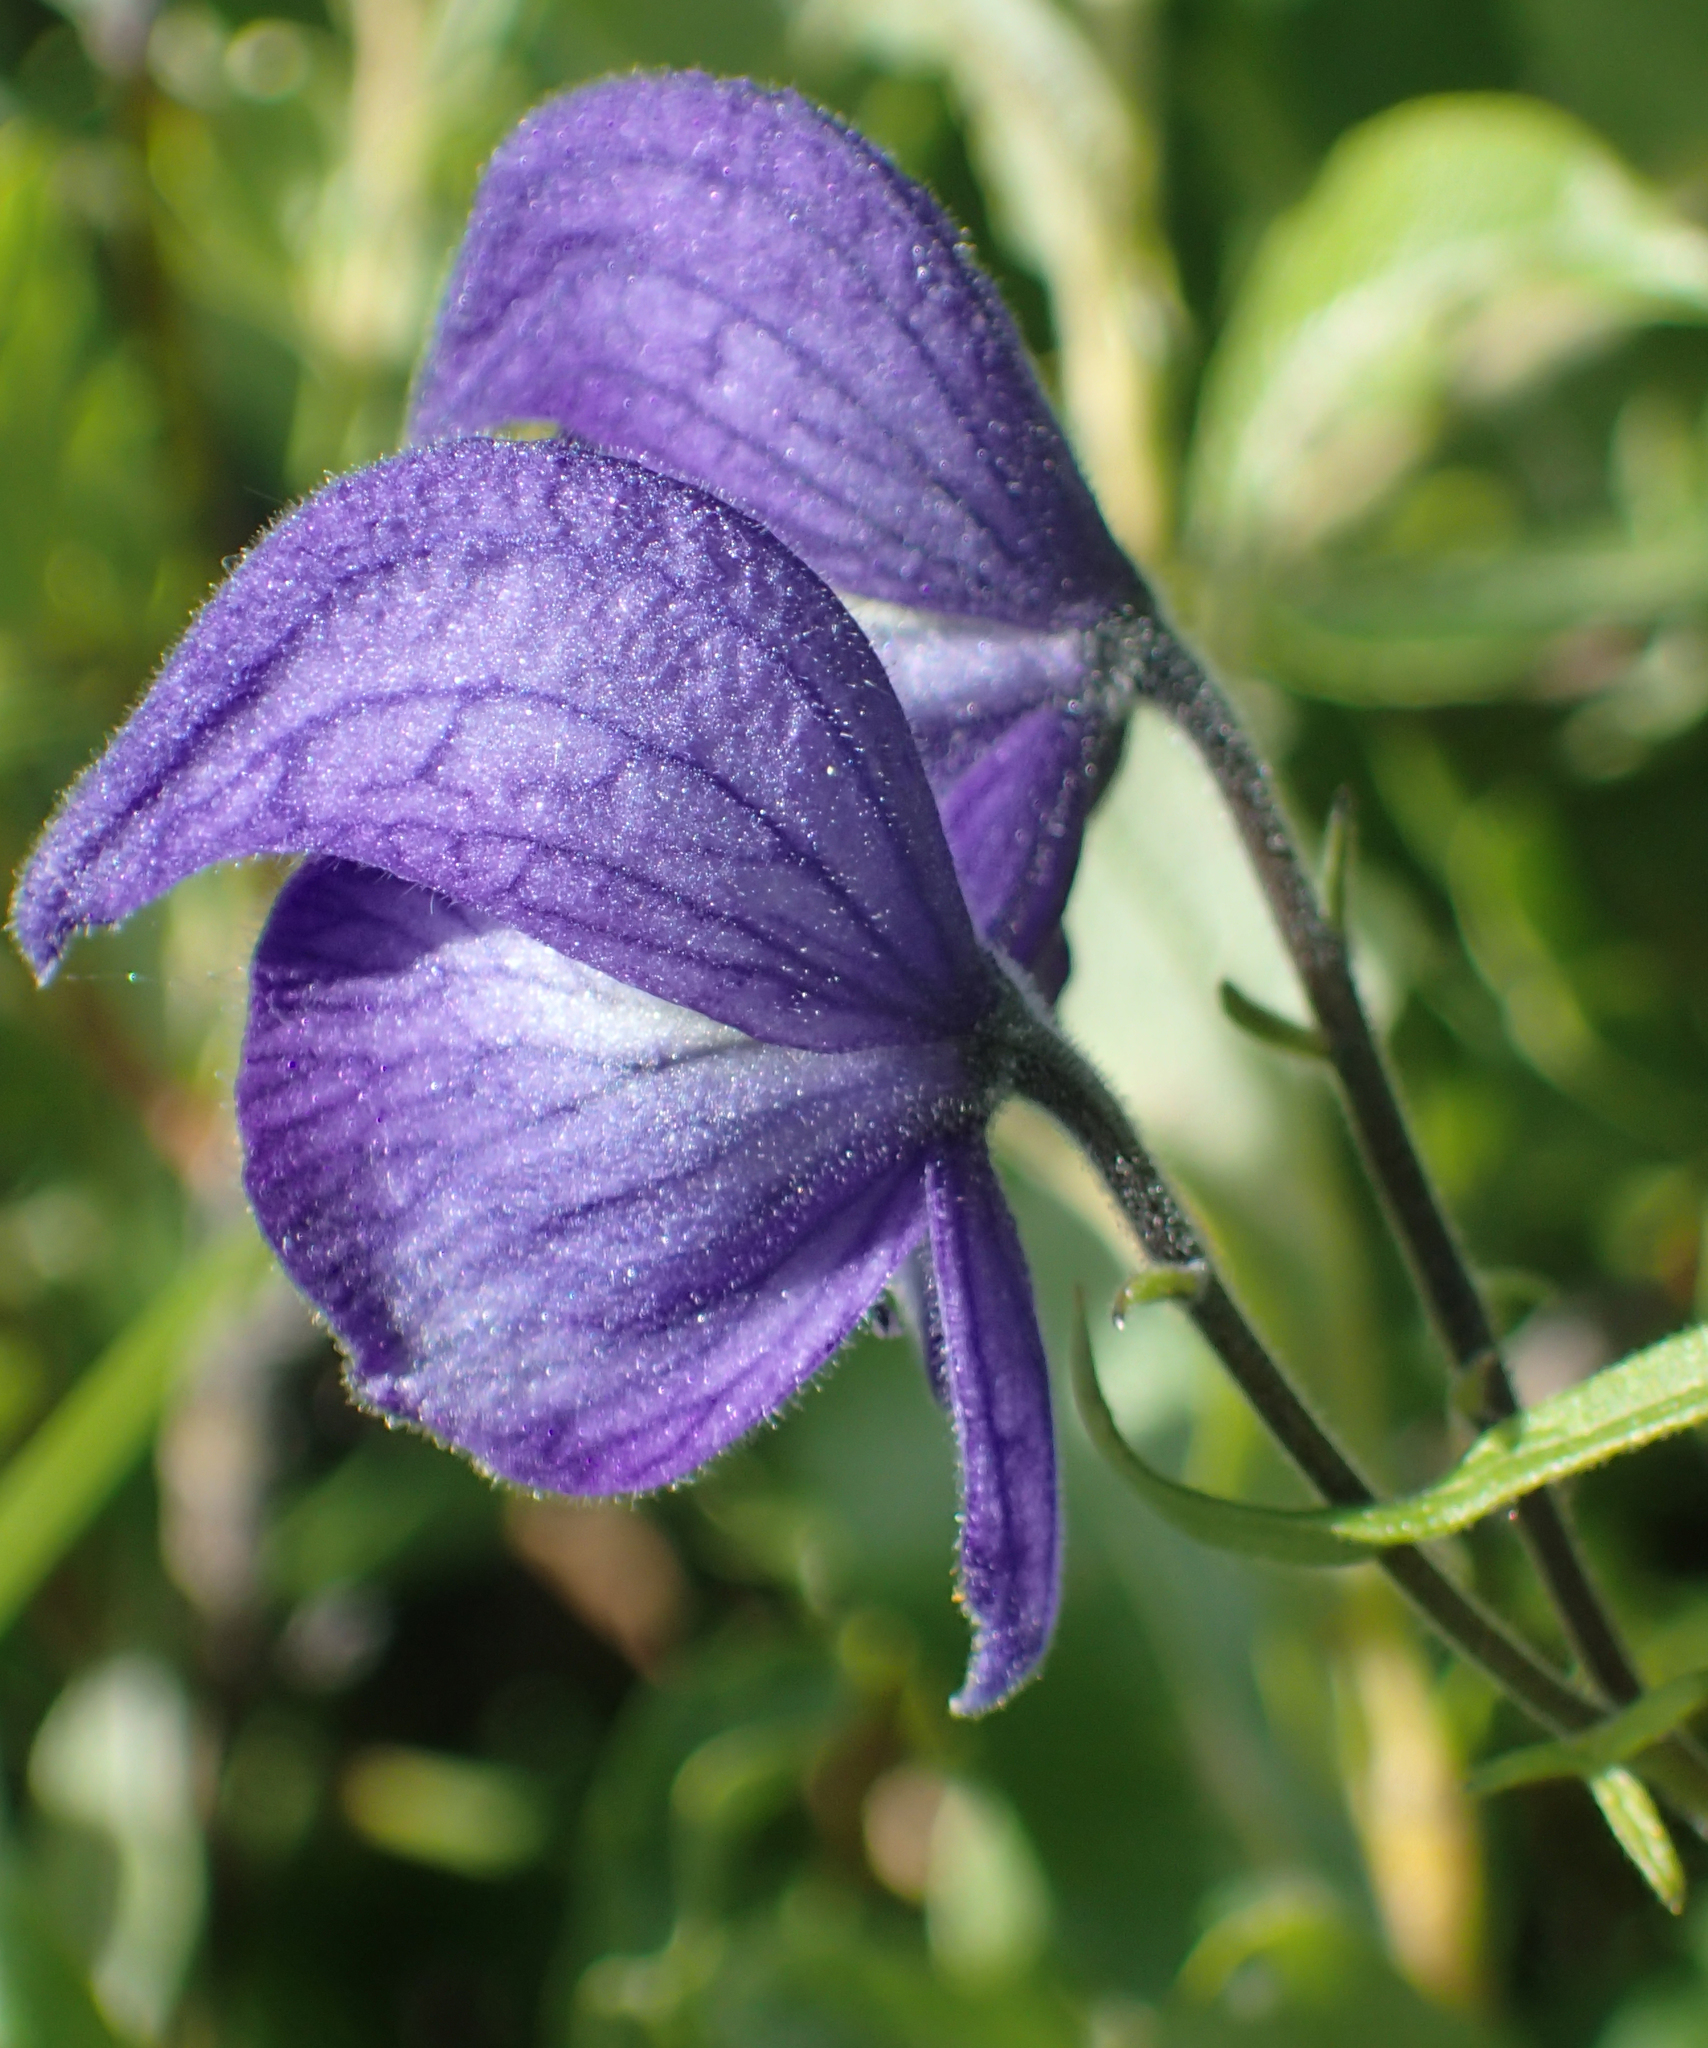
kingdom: Plantae
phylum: Tracheophyta
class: Magnoliopsida
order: Ranunculales
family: Ranunculaceae
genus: Aconitum
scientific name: Aconitum delphiniifolium
